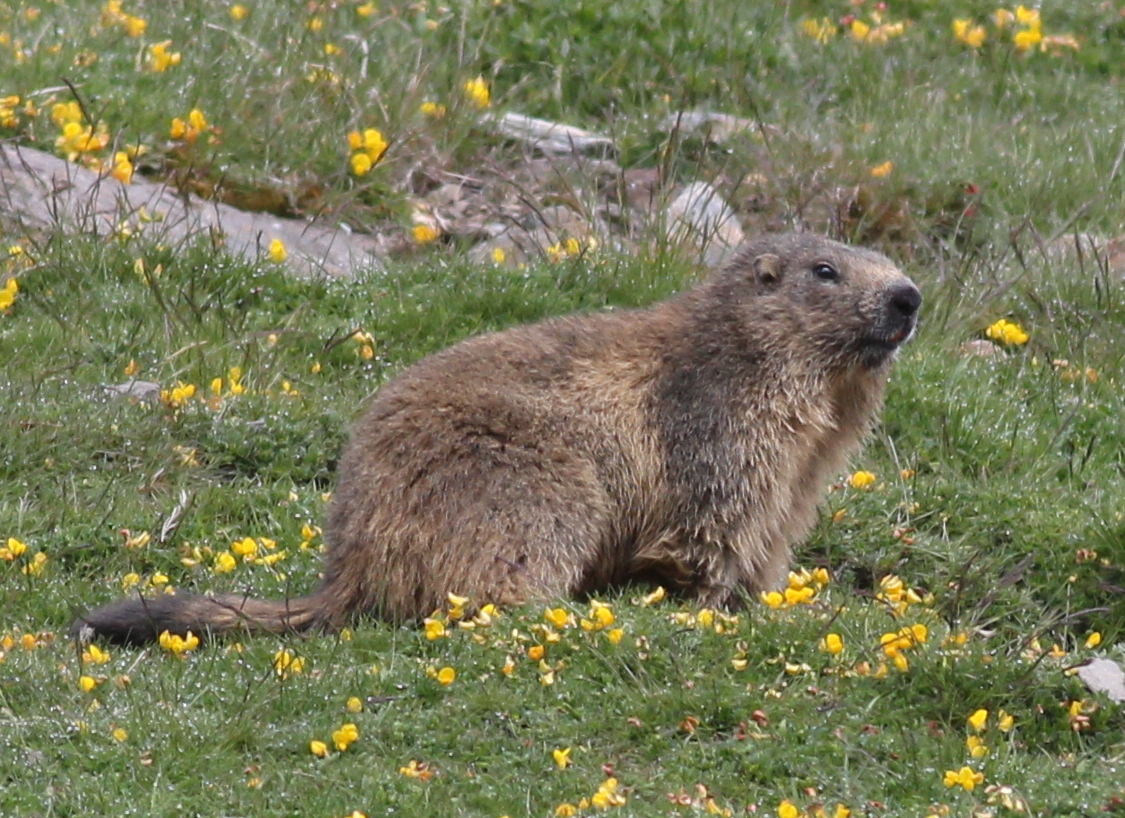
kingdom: Animalia
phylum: Chordata
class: Mammalia
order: Rodentia
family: Sciuridae
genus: Marmota
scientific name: Marmota marmota
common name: Alpine marmot
